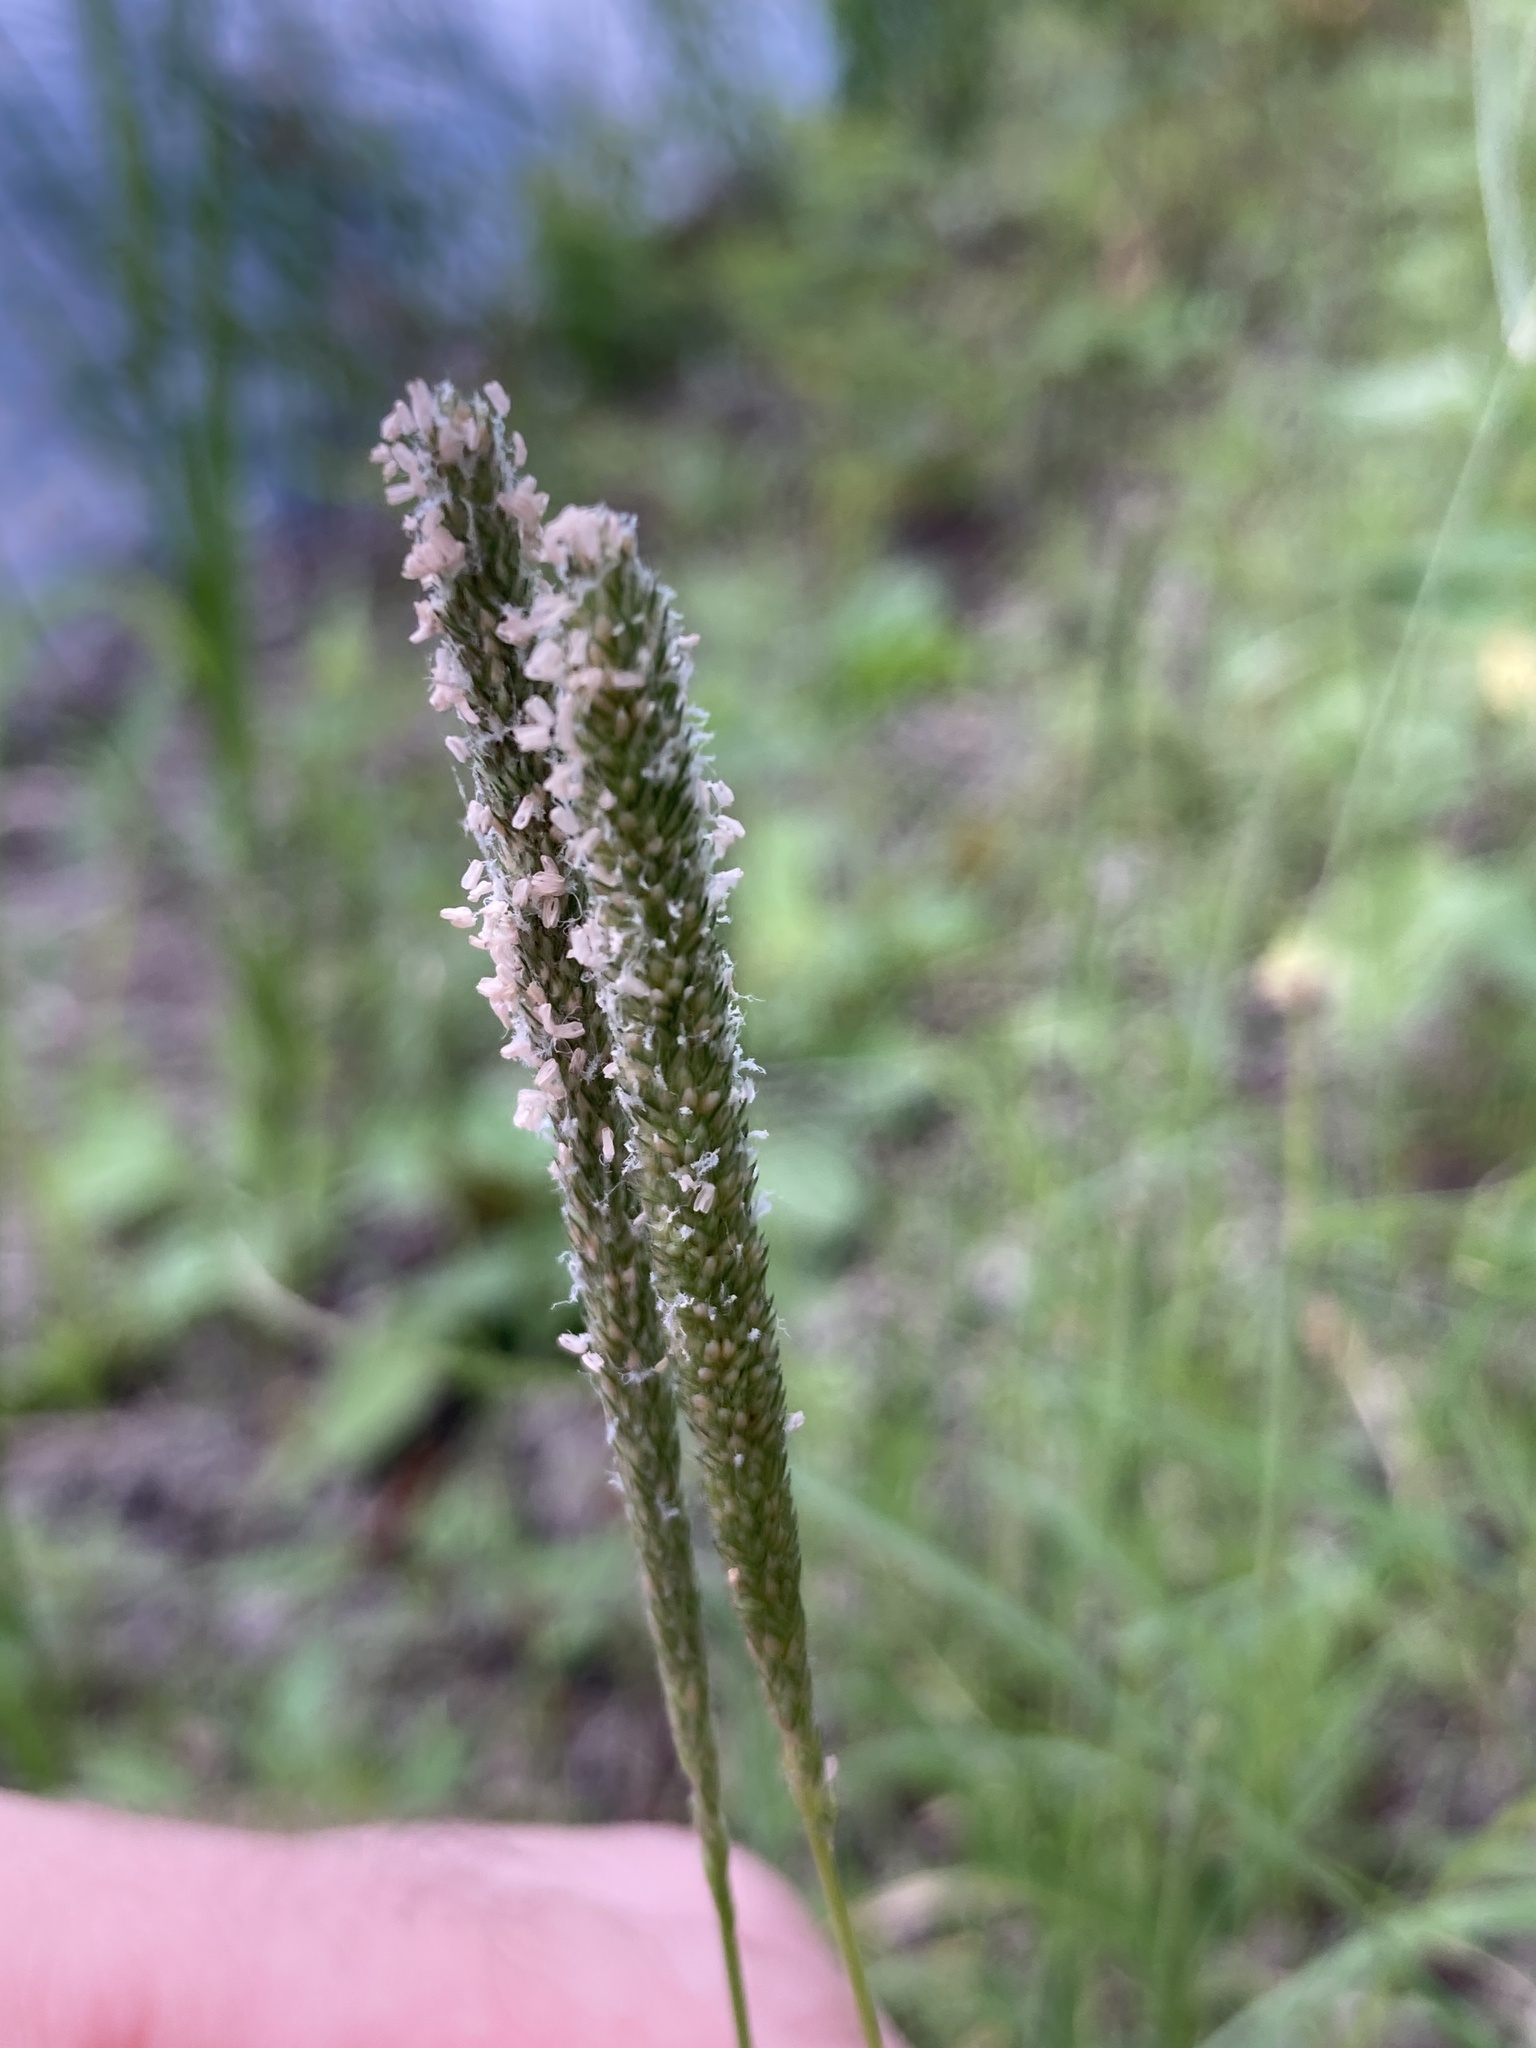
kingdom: Plantae
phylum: Tracheophyta
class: Liliopsida
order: Poales
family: Poaceae
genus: Sporobolus
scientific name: Sporobolus alopecuroides
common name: Foxtail pricklegrass
